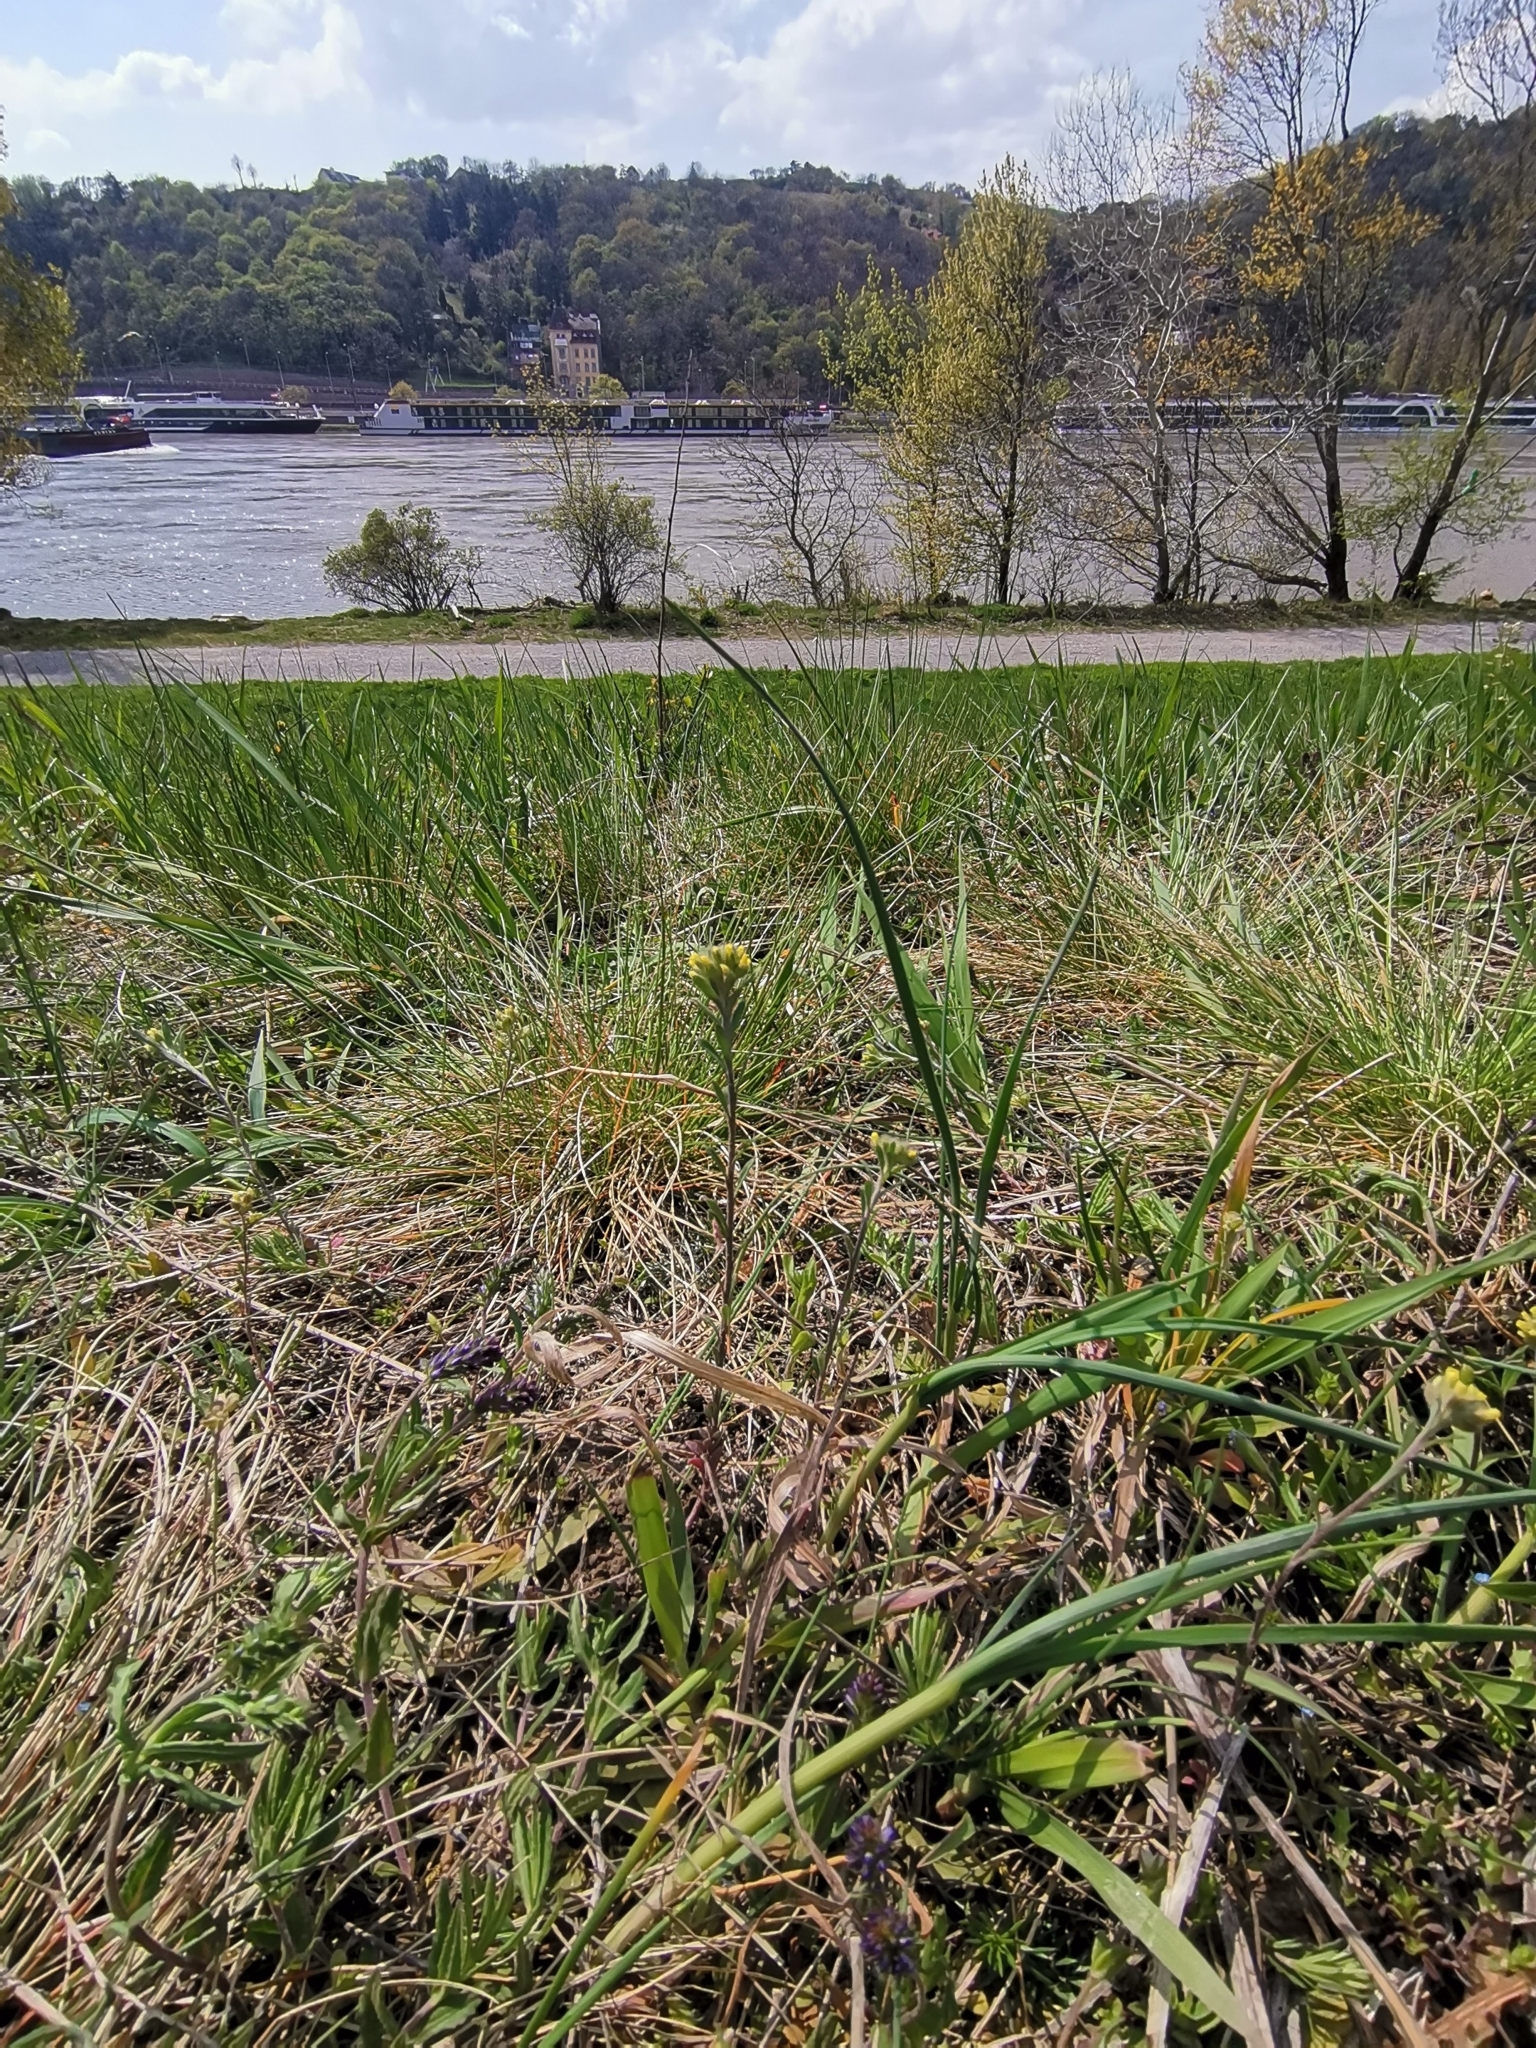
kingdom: Plantae
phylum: Tracheophyta
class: Magnoliopsida
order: Brassicales
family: Brassicaceae
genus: Alyssum
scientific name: Alyssum alyssoides
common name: Small alison
